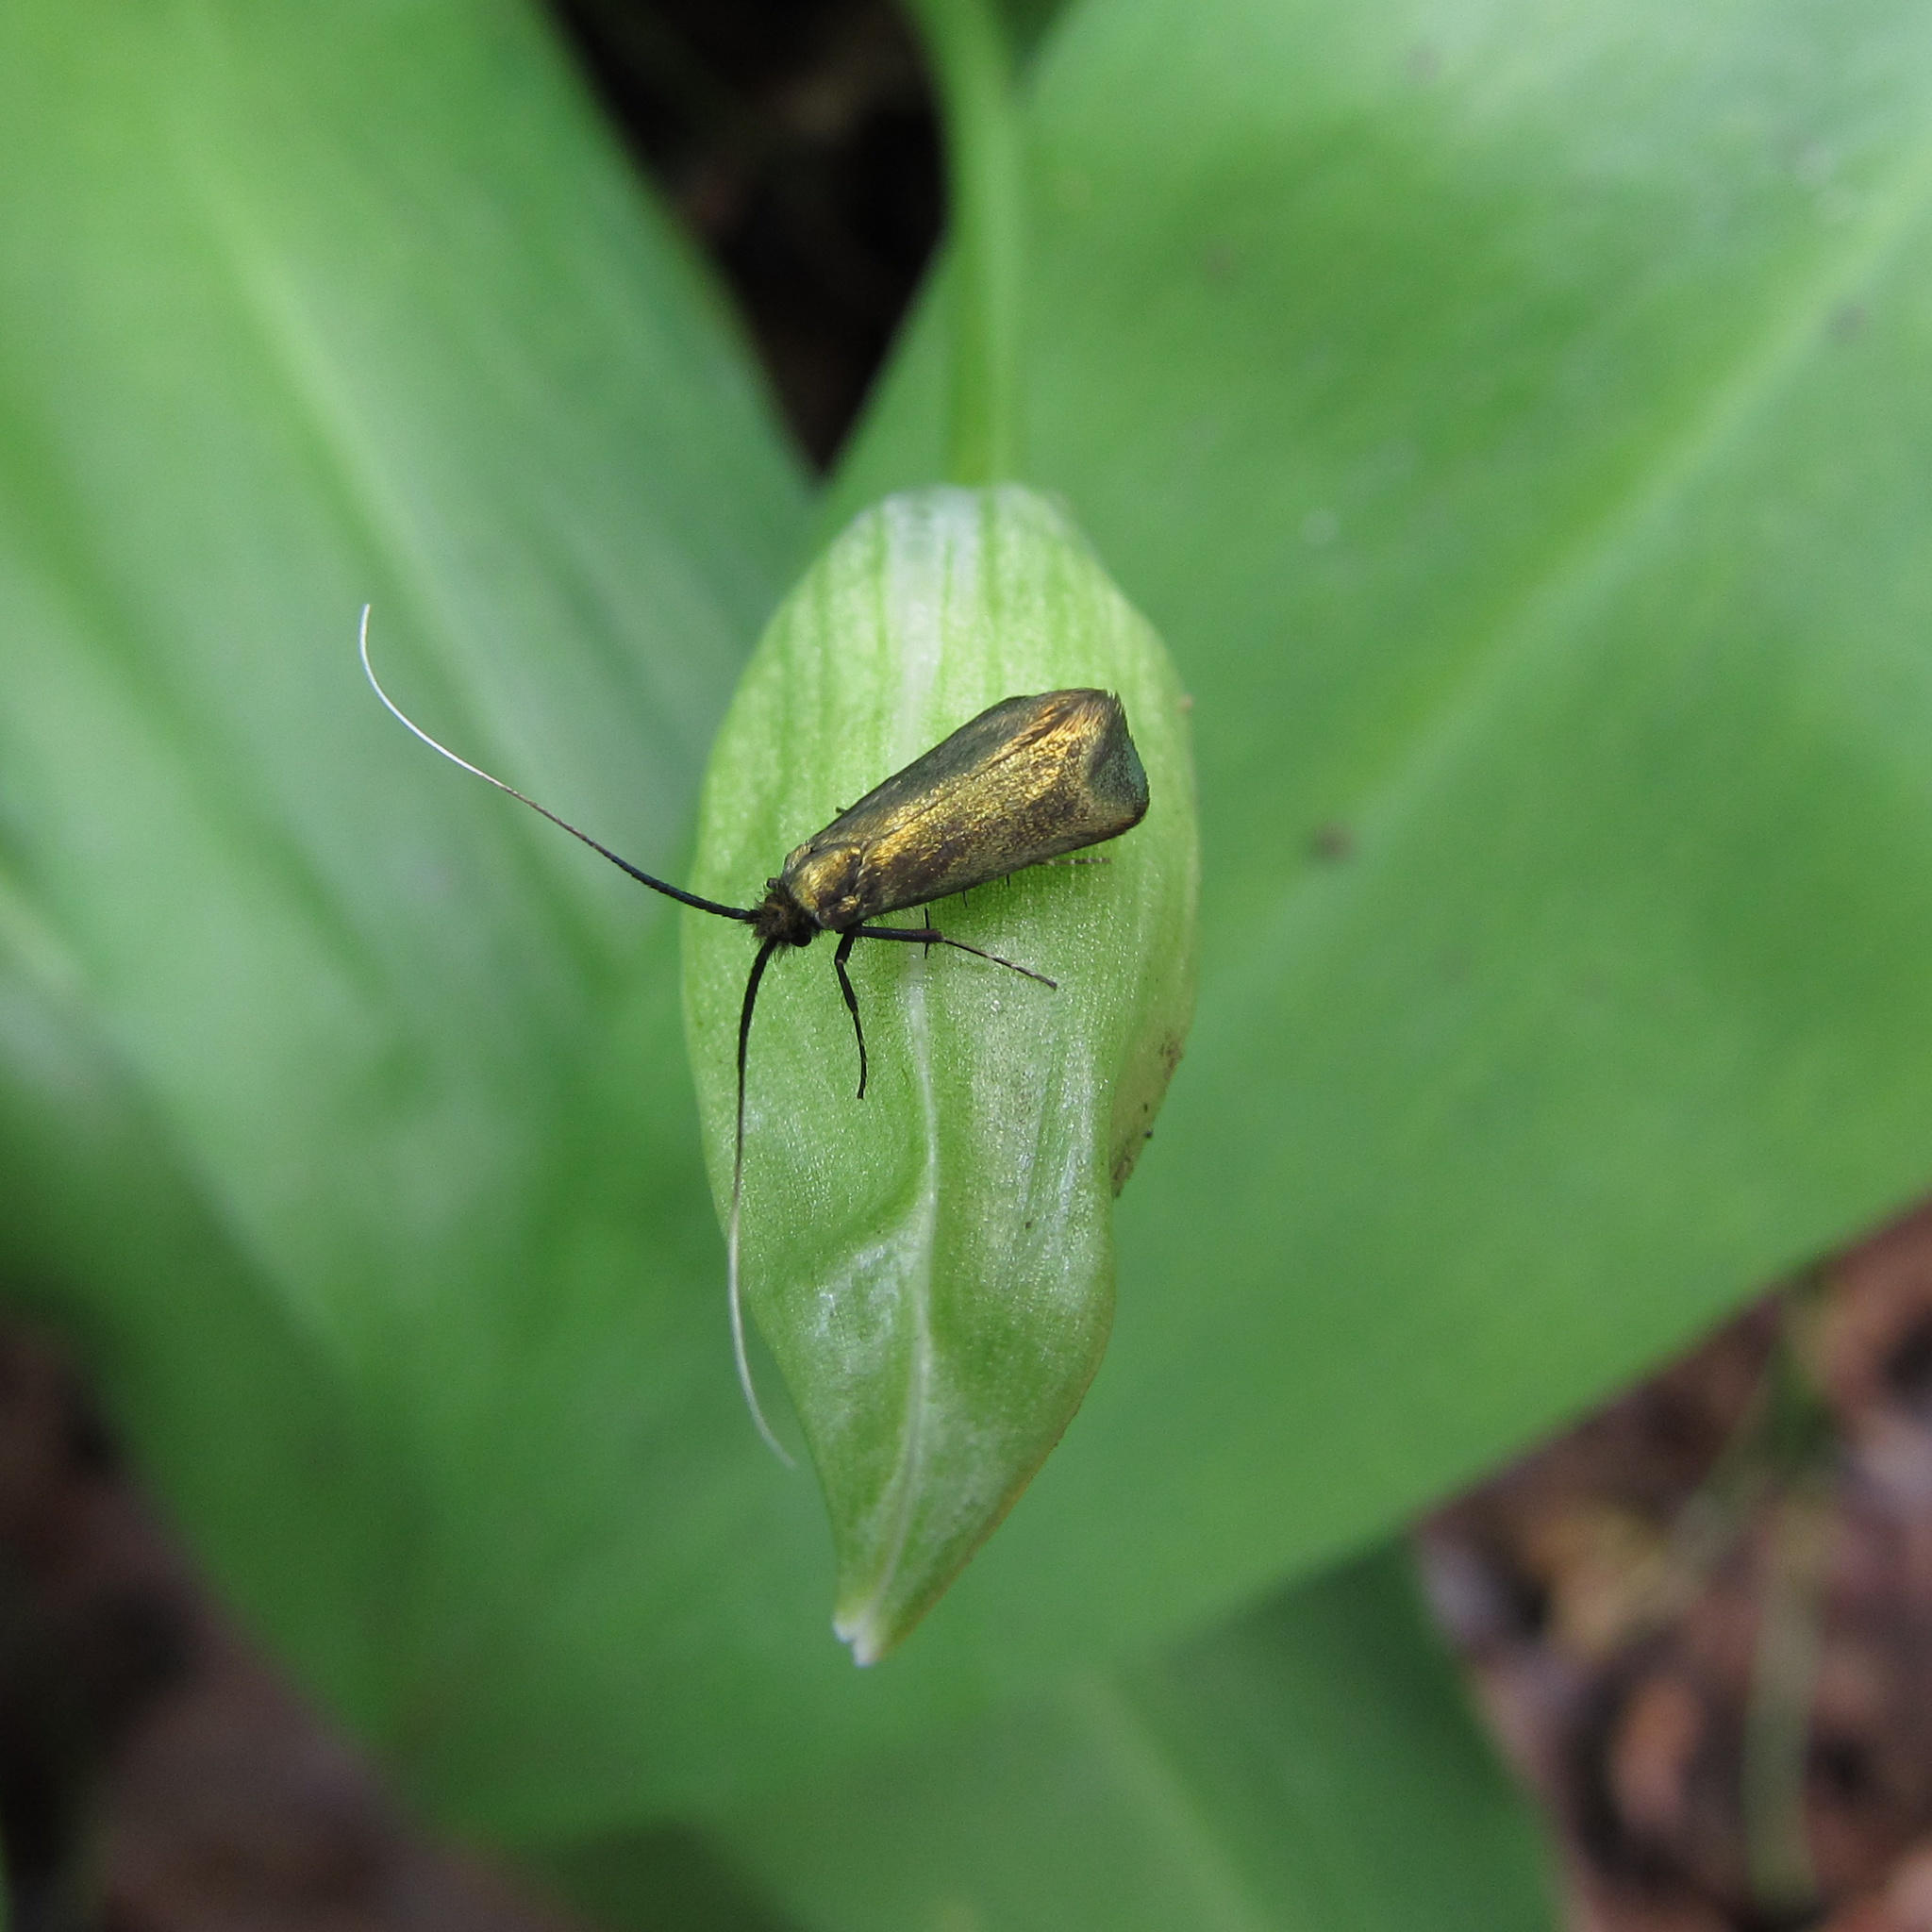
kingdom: Animalia
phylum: Arthropoda
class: Insecta
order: Lepidoptera
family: Adelidae
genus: Adela
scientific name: Adela viridella
